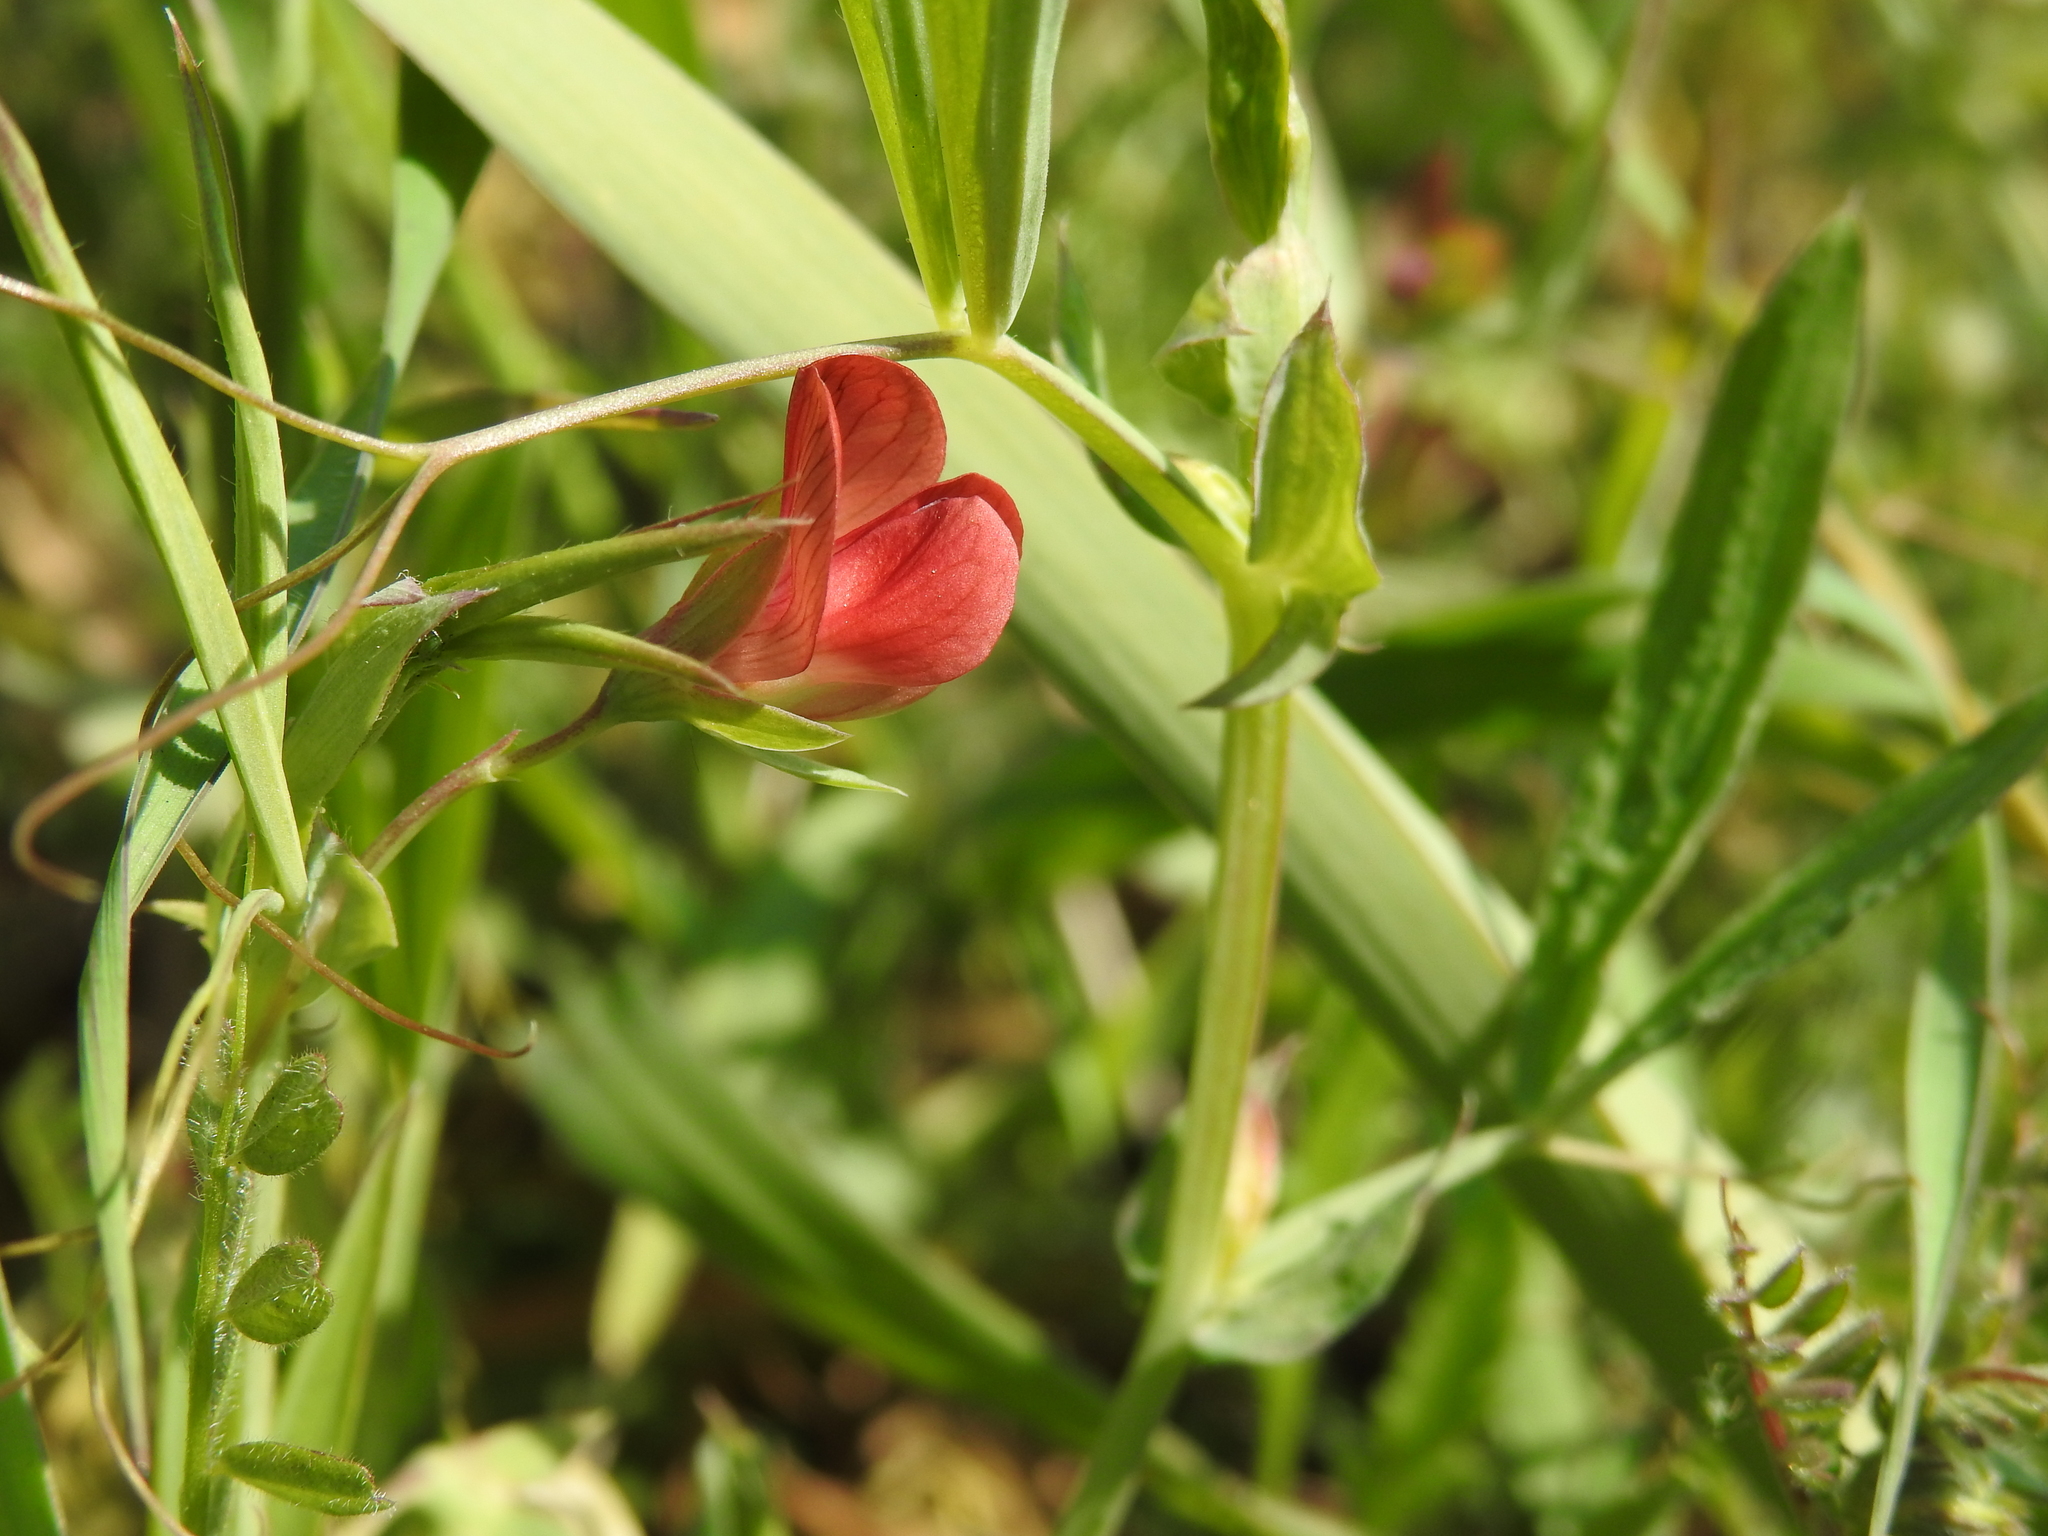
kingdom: Plantae
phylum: Tracheophyta
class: Magnoliopsida
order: Fabales
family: Fabaceae
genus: Lathyrus
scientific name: Lathyrus cicera
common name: Red vetchling
